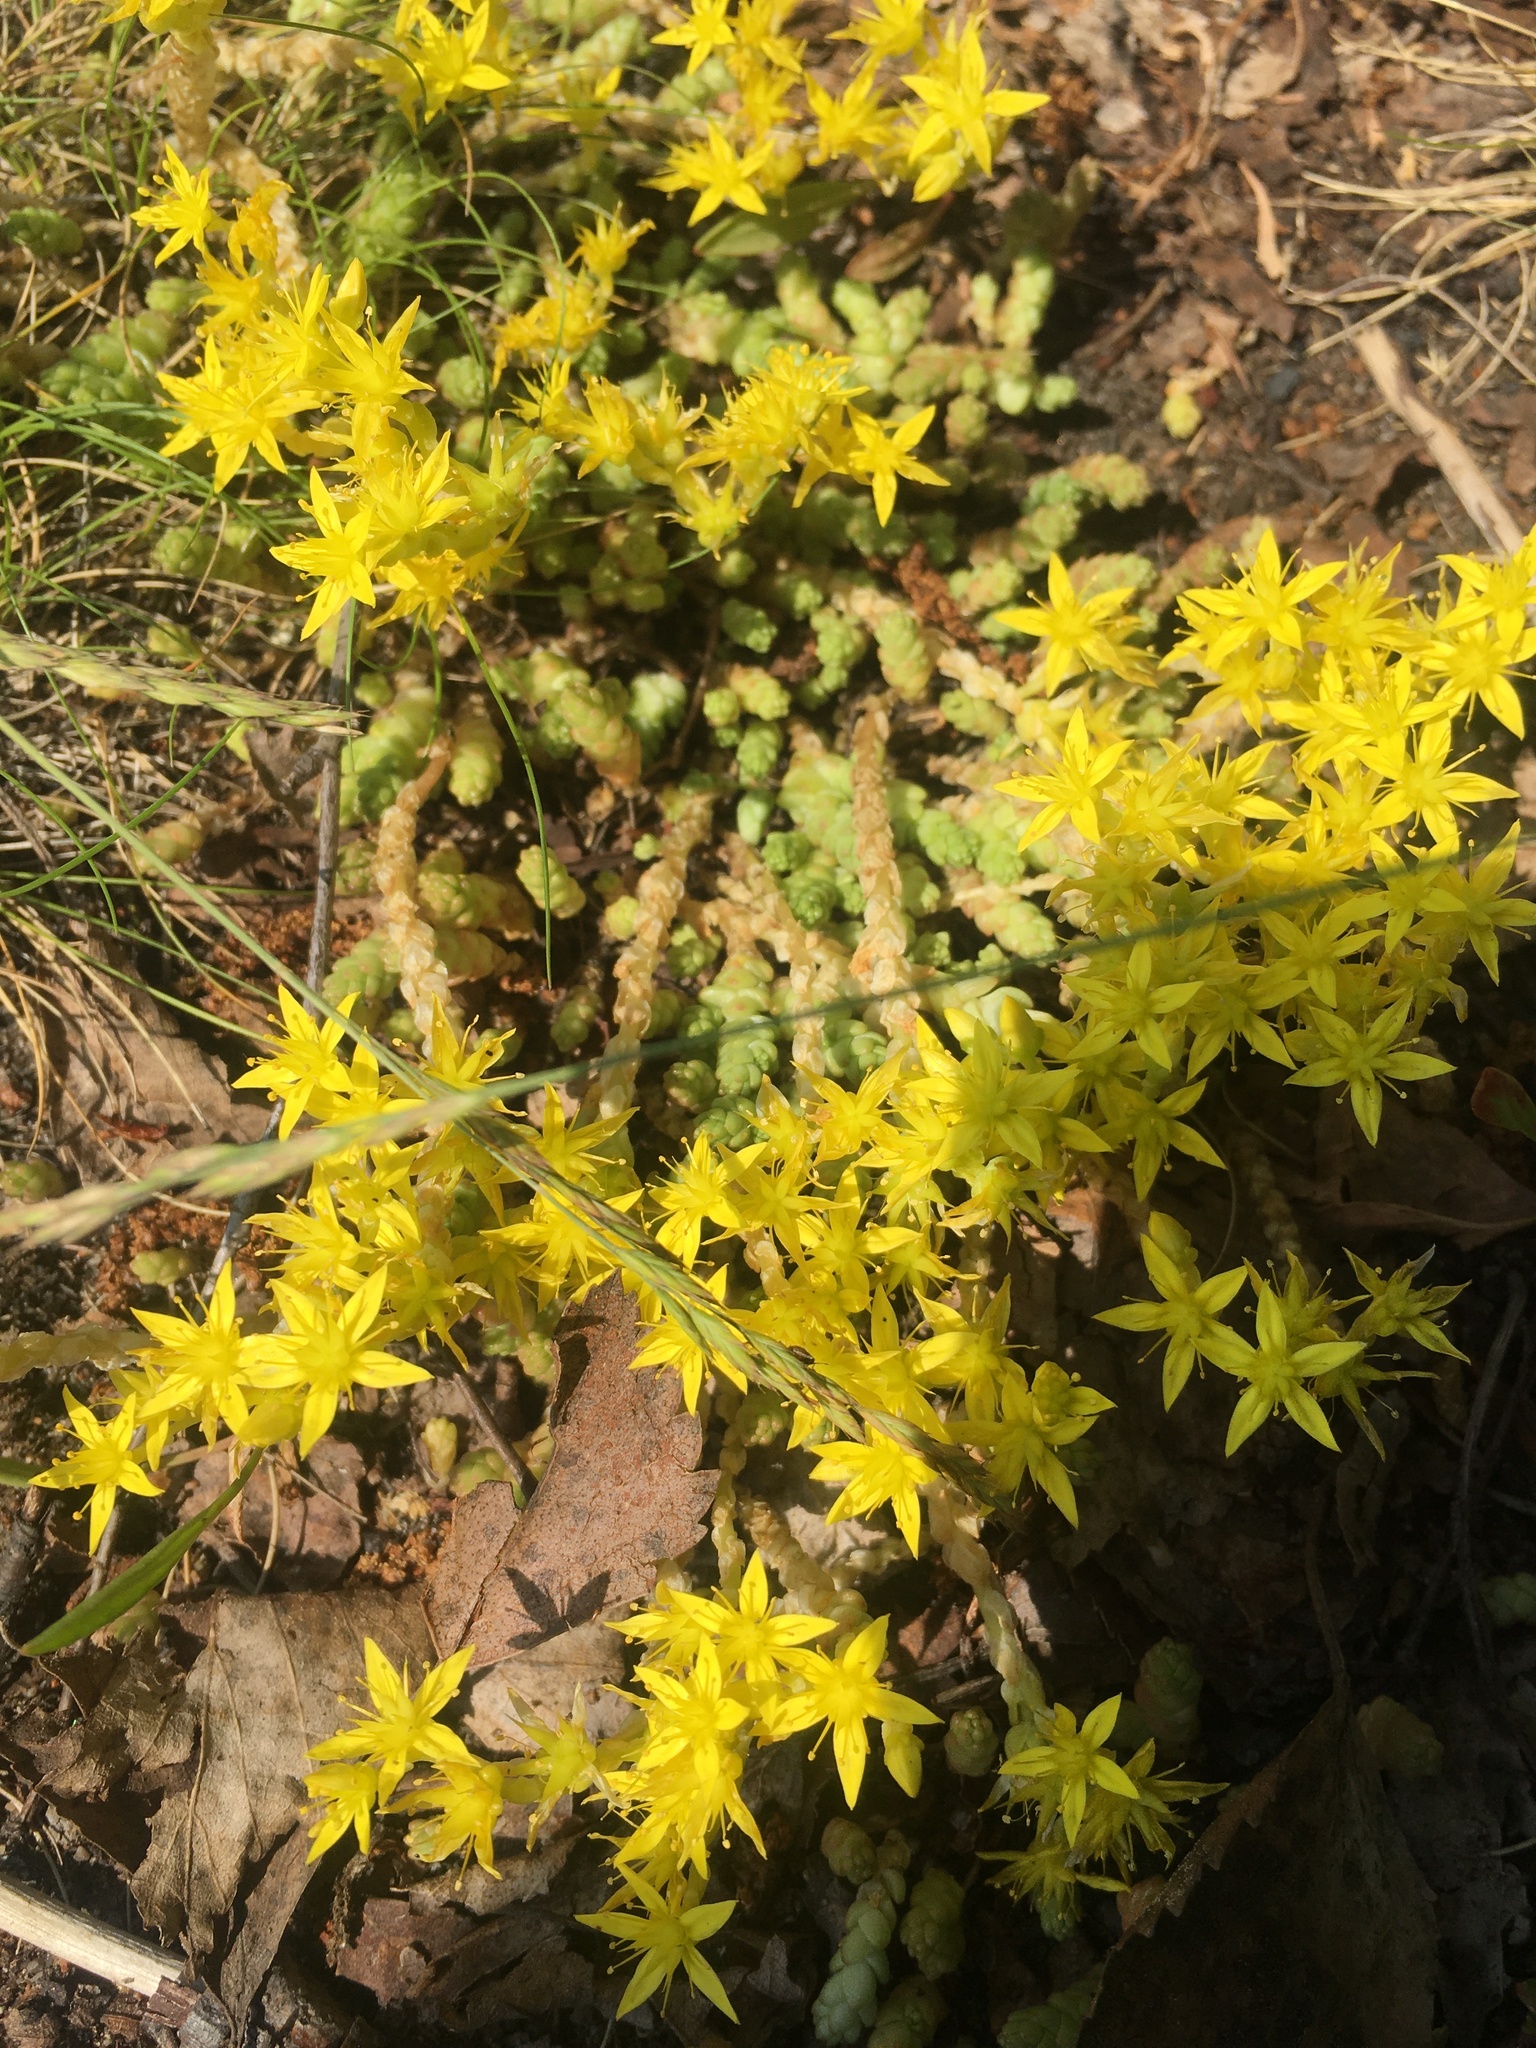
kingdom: Plantae
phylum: Tracheophyta
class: Magnoliopsida
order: Saxifragales
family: Crassulaceae
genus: Sedum
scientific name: Sedum acre
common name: Biting stonecrop
